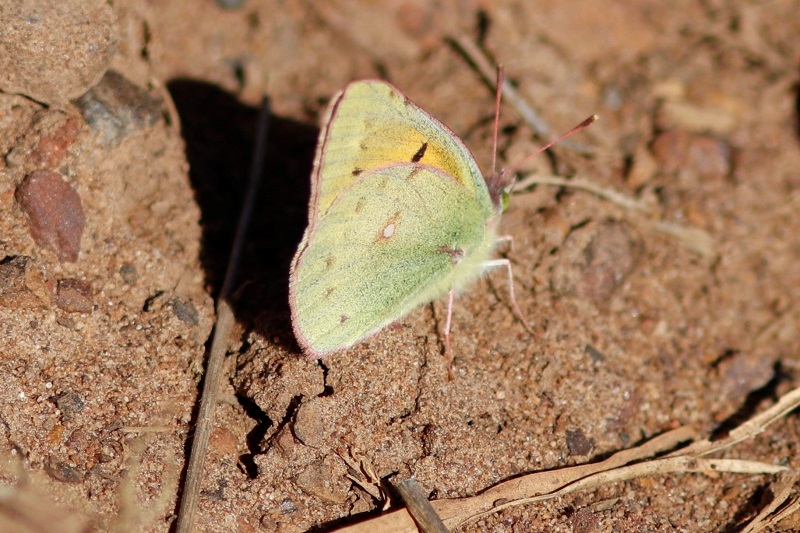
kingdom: Animalia
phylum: Arthropoda
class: Insecta
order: Lepidoptera
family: Pieridae
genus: Colias
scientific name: Colias electo
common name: African clouded yellow
